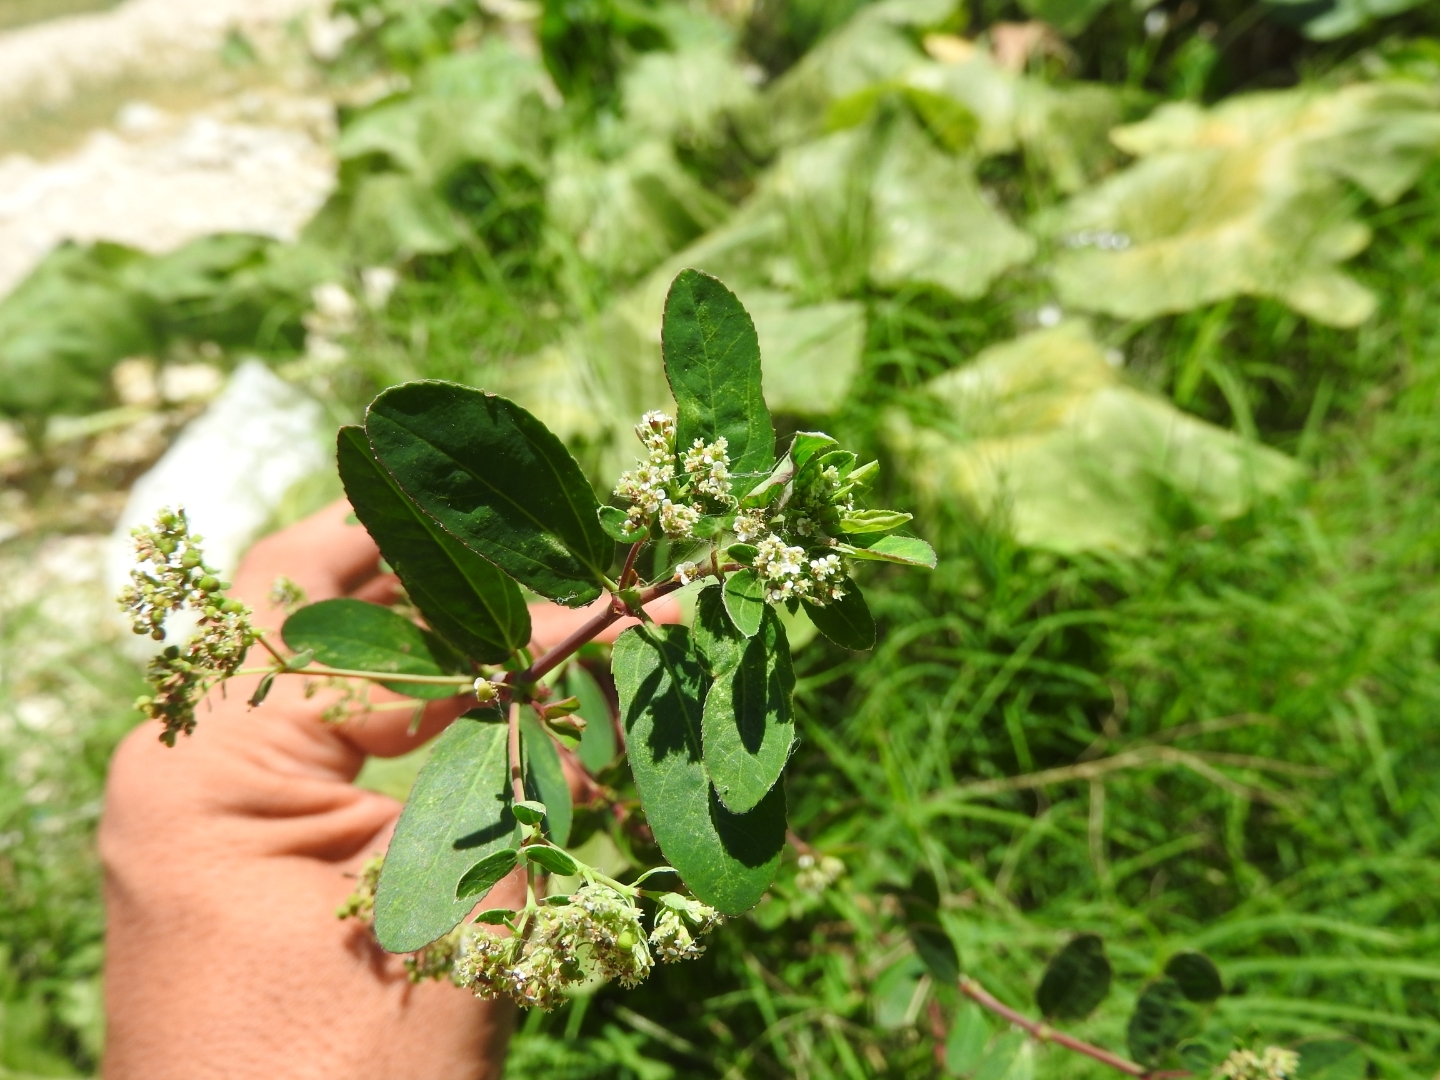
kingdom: Plantae
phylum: Tracheophyta
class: Magnoliopsida
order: Malpighiales
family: Euphorbiaceae
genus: Euphorbia
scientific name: Euphorbia hypericifolia
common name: Graceful sandmat
